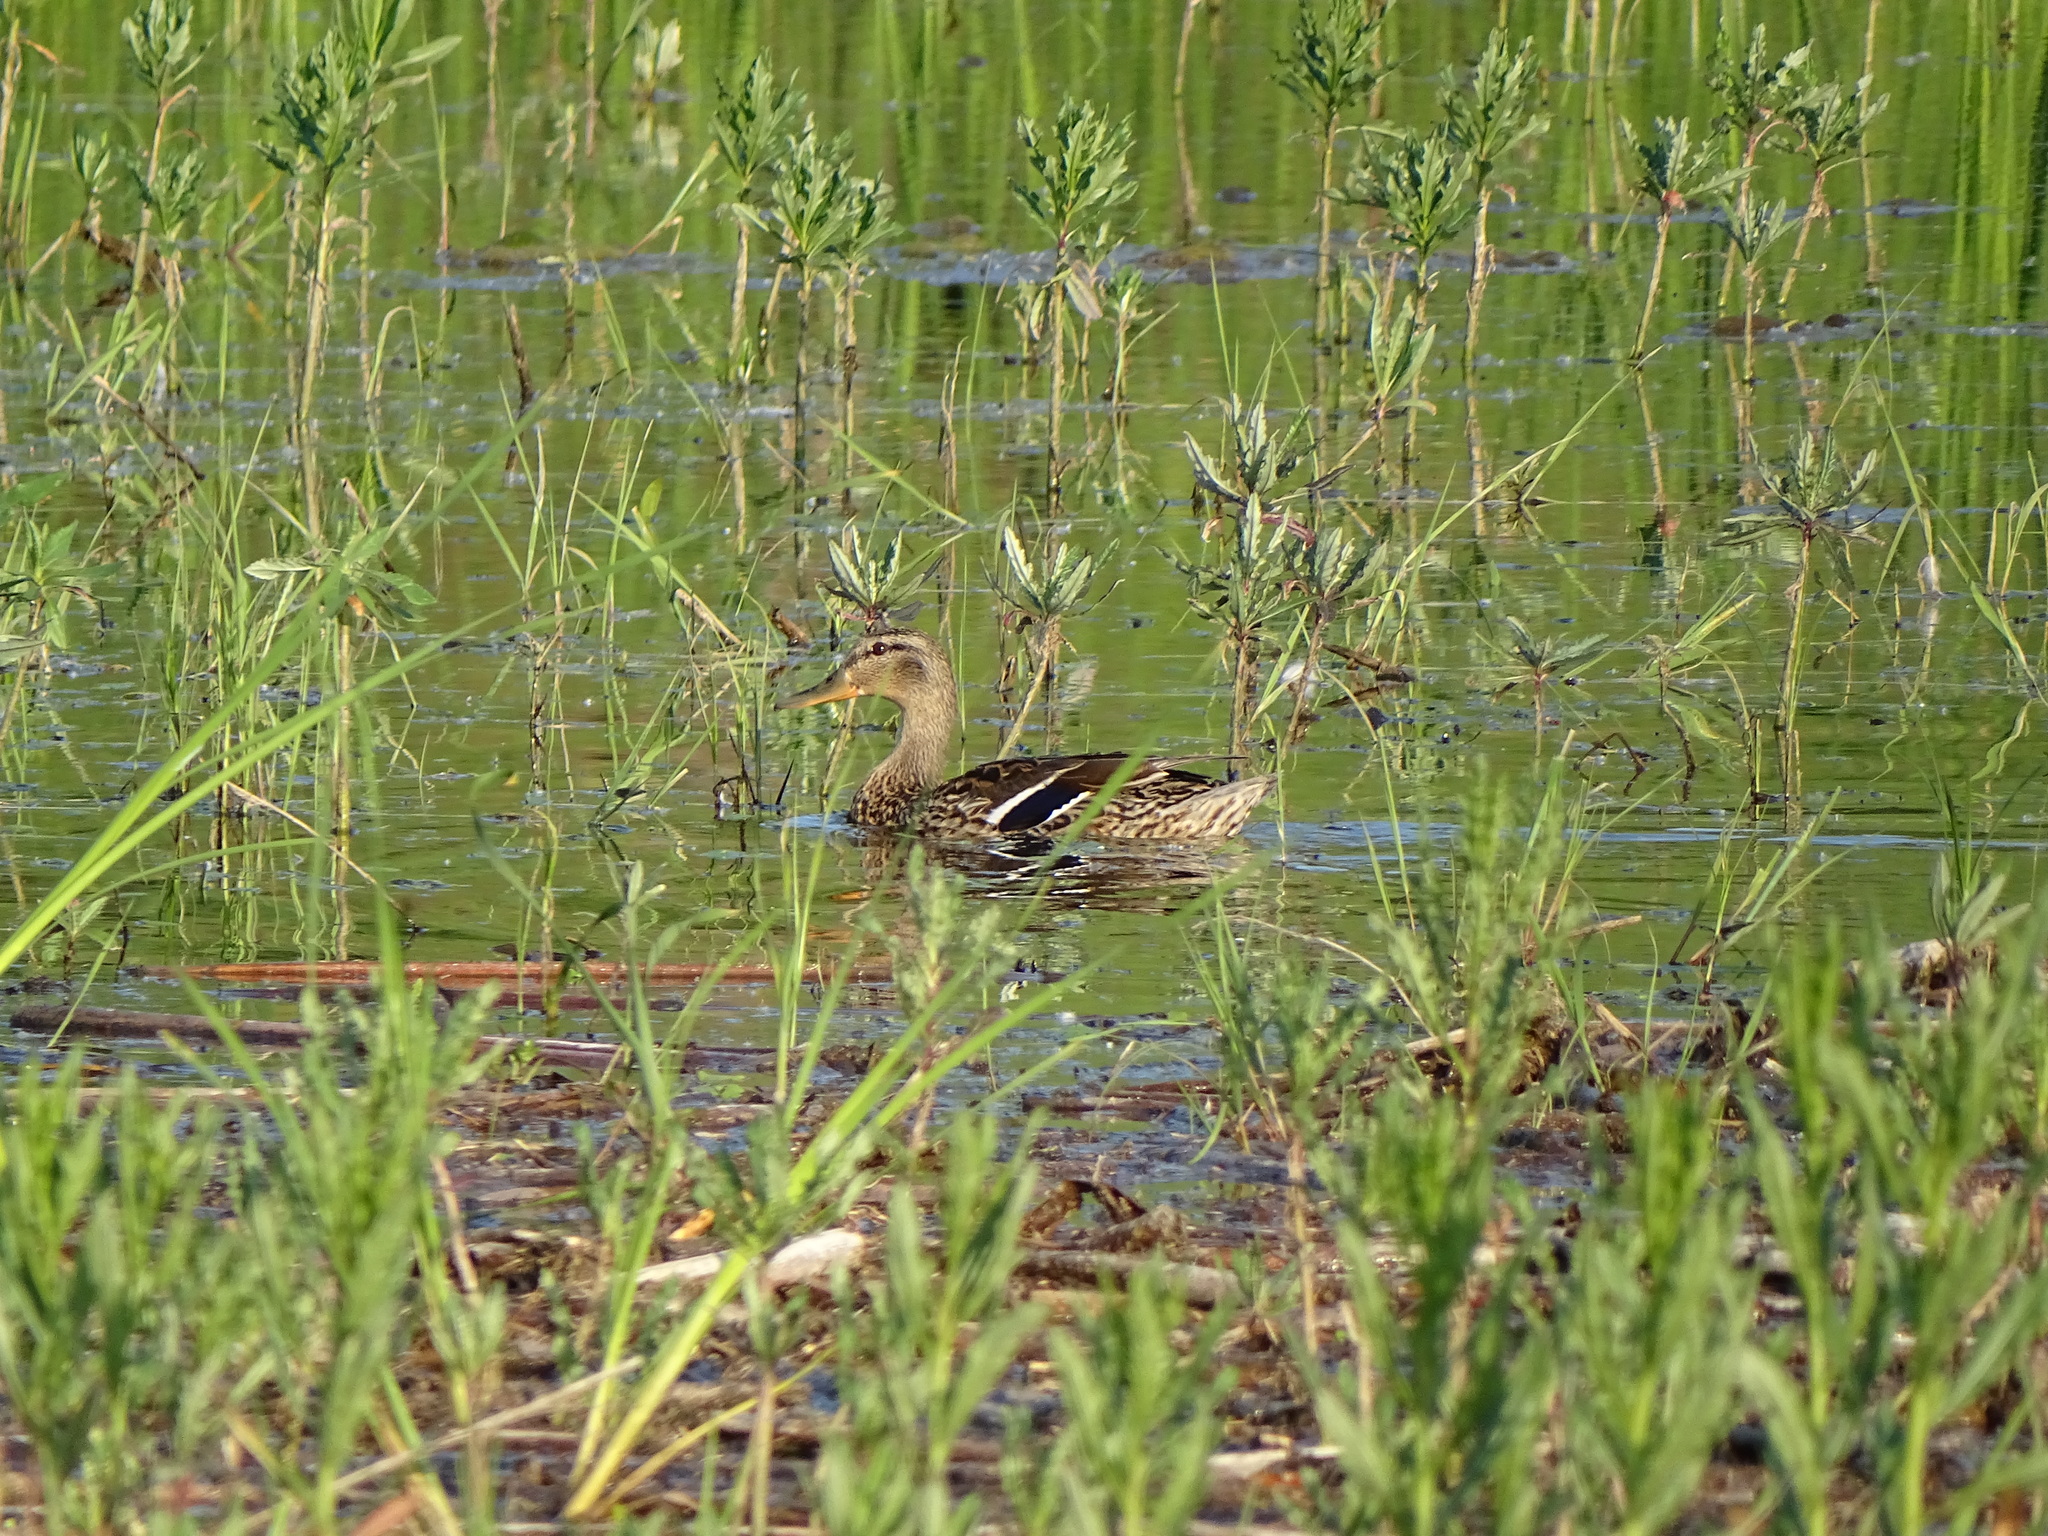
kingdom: Animalia
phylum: Chordata
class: Aves
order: Anseriformes
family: Anatidae
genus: Anas
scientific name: Anas platyrhynchos
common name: Mallard
